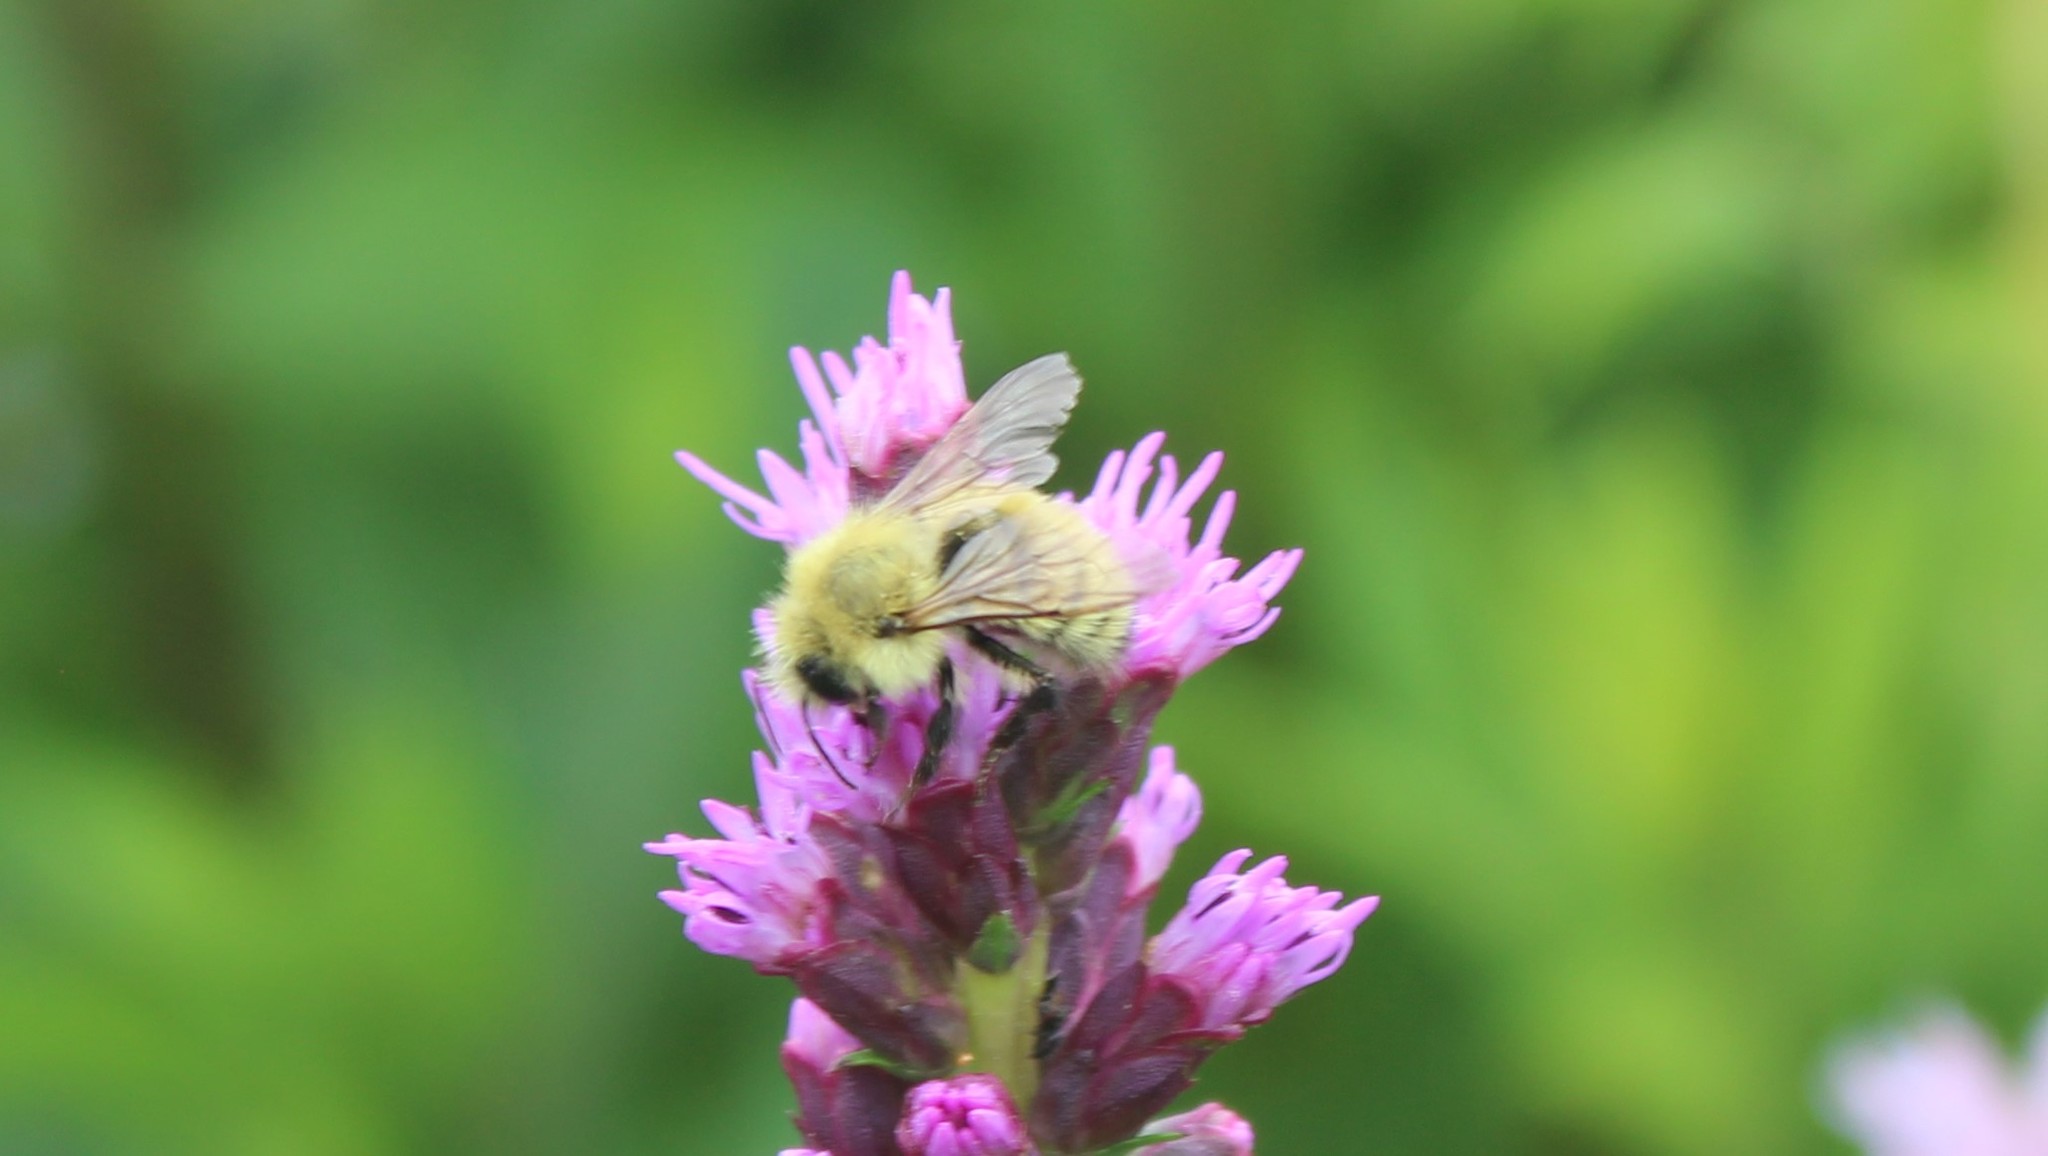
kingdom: Animalia
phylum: Arthropoda
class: Insecta
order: Hymenoptera
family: Apidae
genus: Bombus
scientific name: Bombus perplexus
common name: Confusing bumble bee
